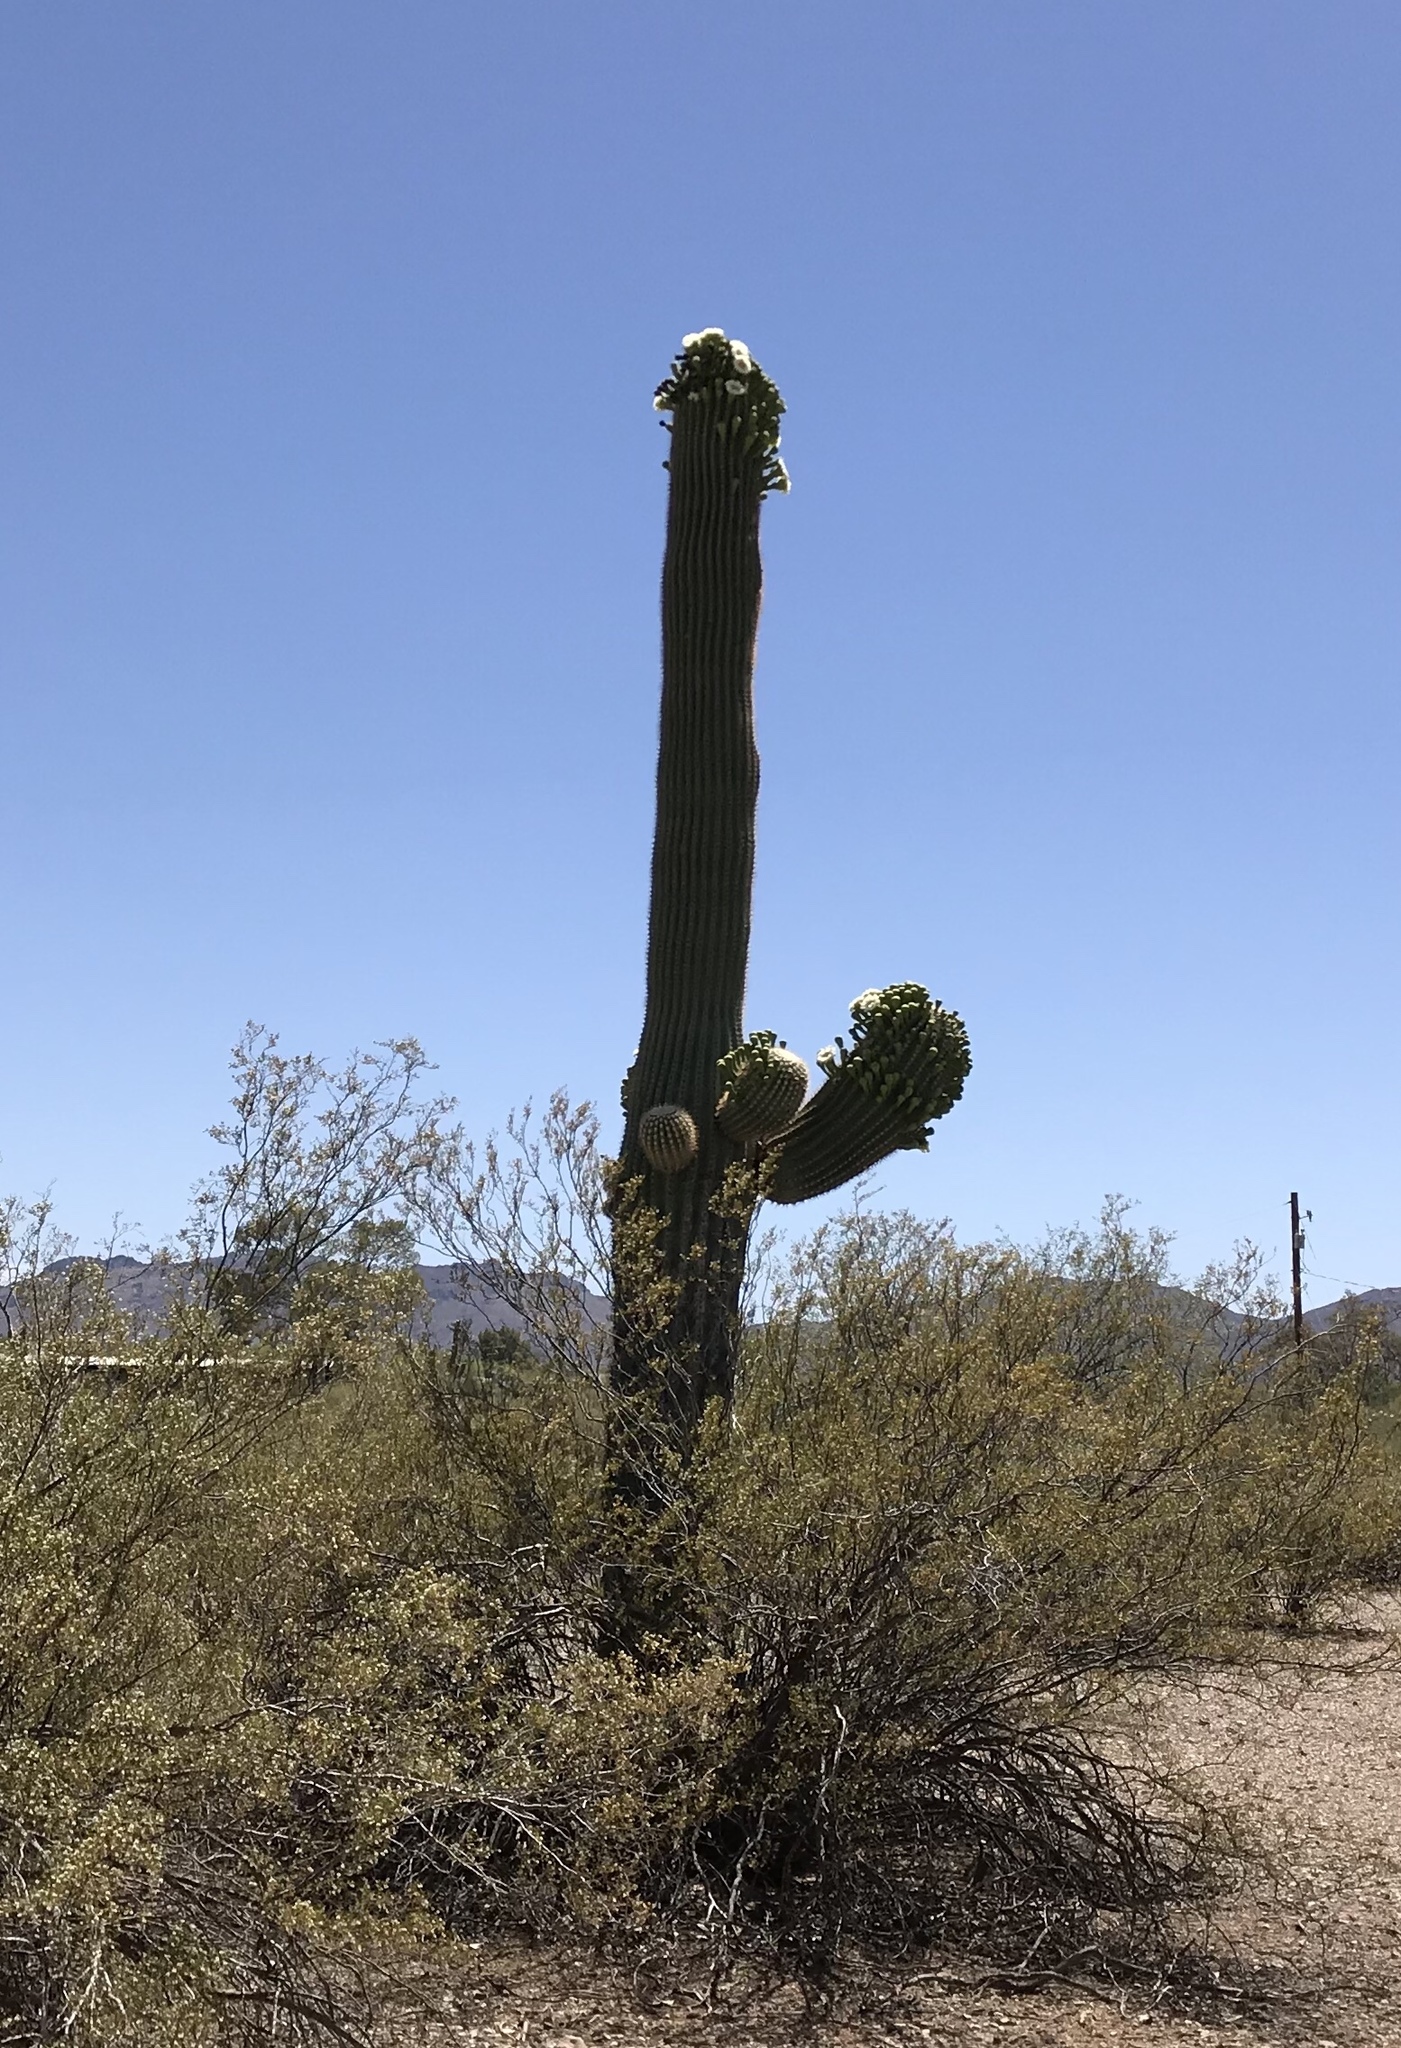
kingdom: Plantae
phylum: Tracheophyta
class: Magnoliopsida
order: Caryophyllales
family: Cactaceae
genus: Carnegiea
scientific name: Carnegiea gigantea
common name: Saguaro
